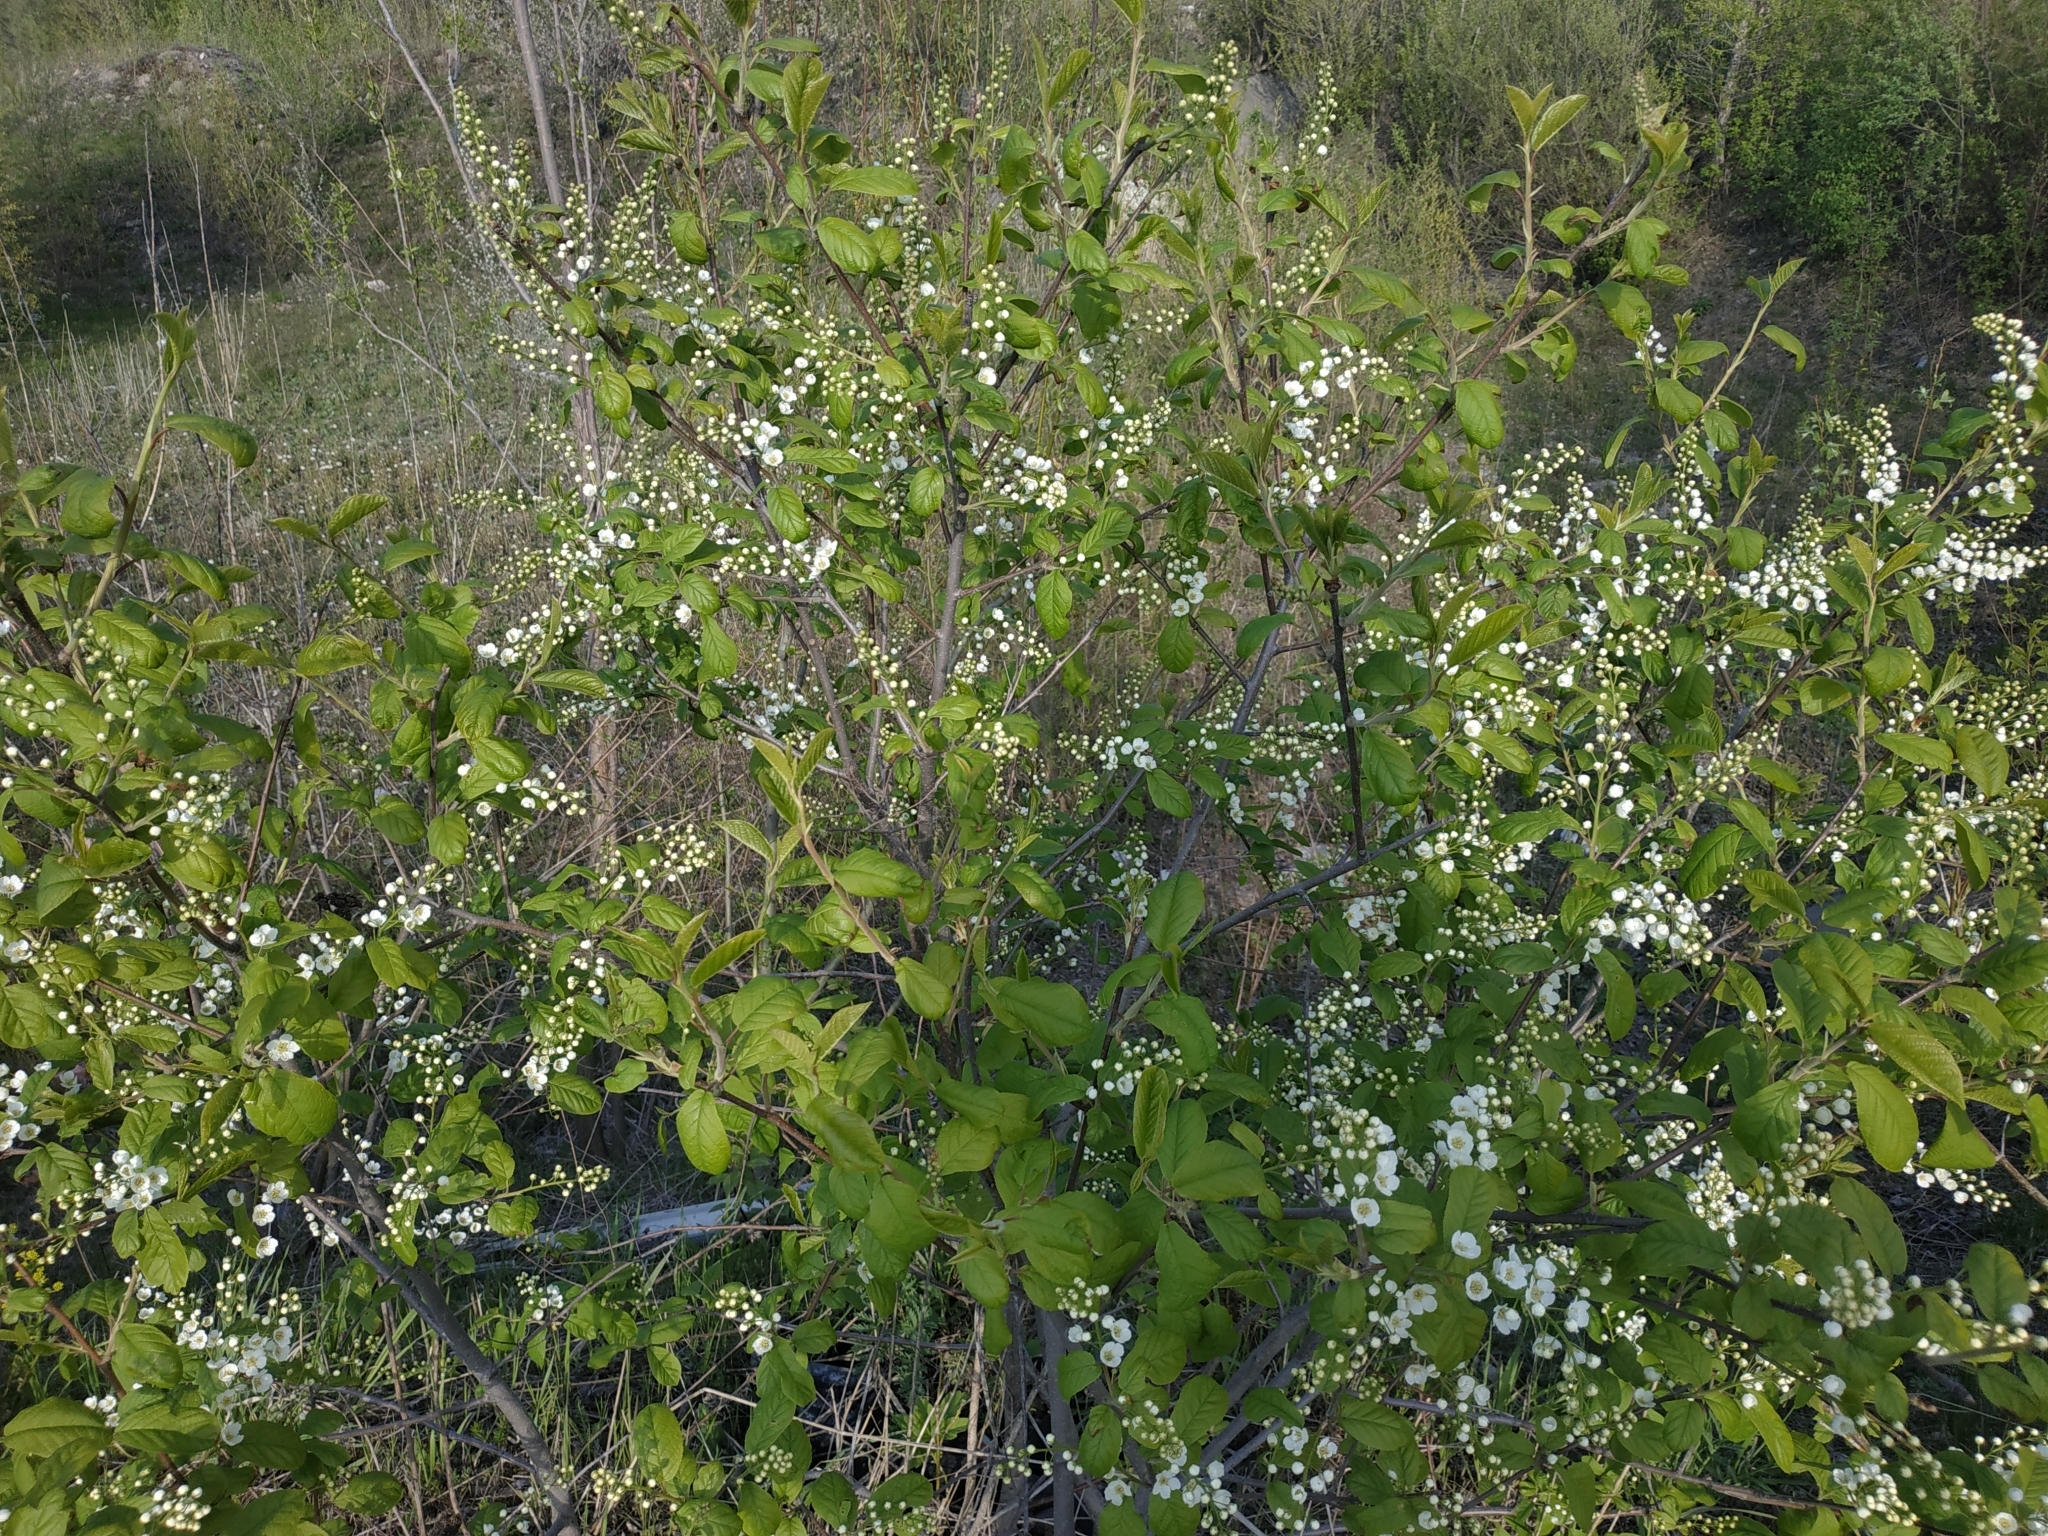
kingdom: Plantae
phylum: Tracheophyta
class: Magnoliopsida
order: Rosales
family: Rosaceae
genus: Prunus
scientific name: Prunus padus
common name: Bird cherry
